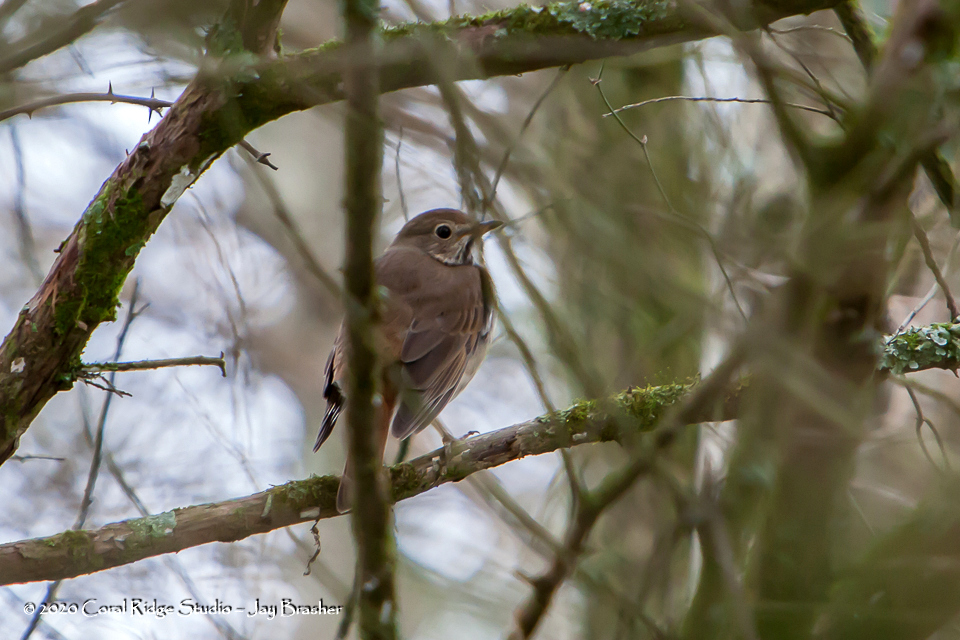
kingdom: Animalia
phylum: Chordata
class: Aves
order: Passeriformes
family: Turdidae
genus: Catharus
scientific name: Catharus guttatus
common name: Hermit thrush
